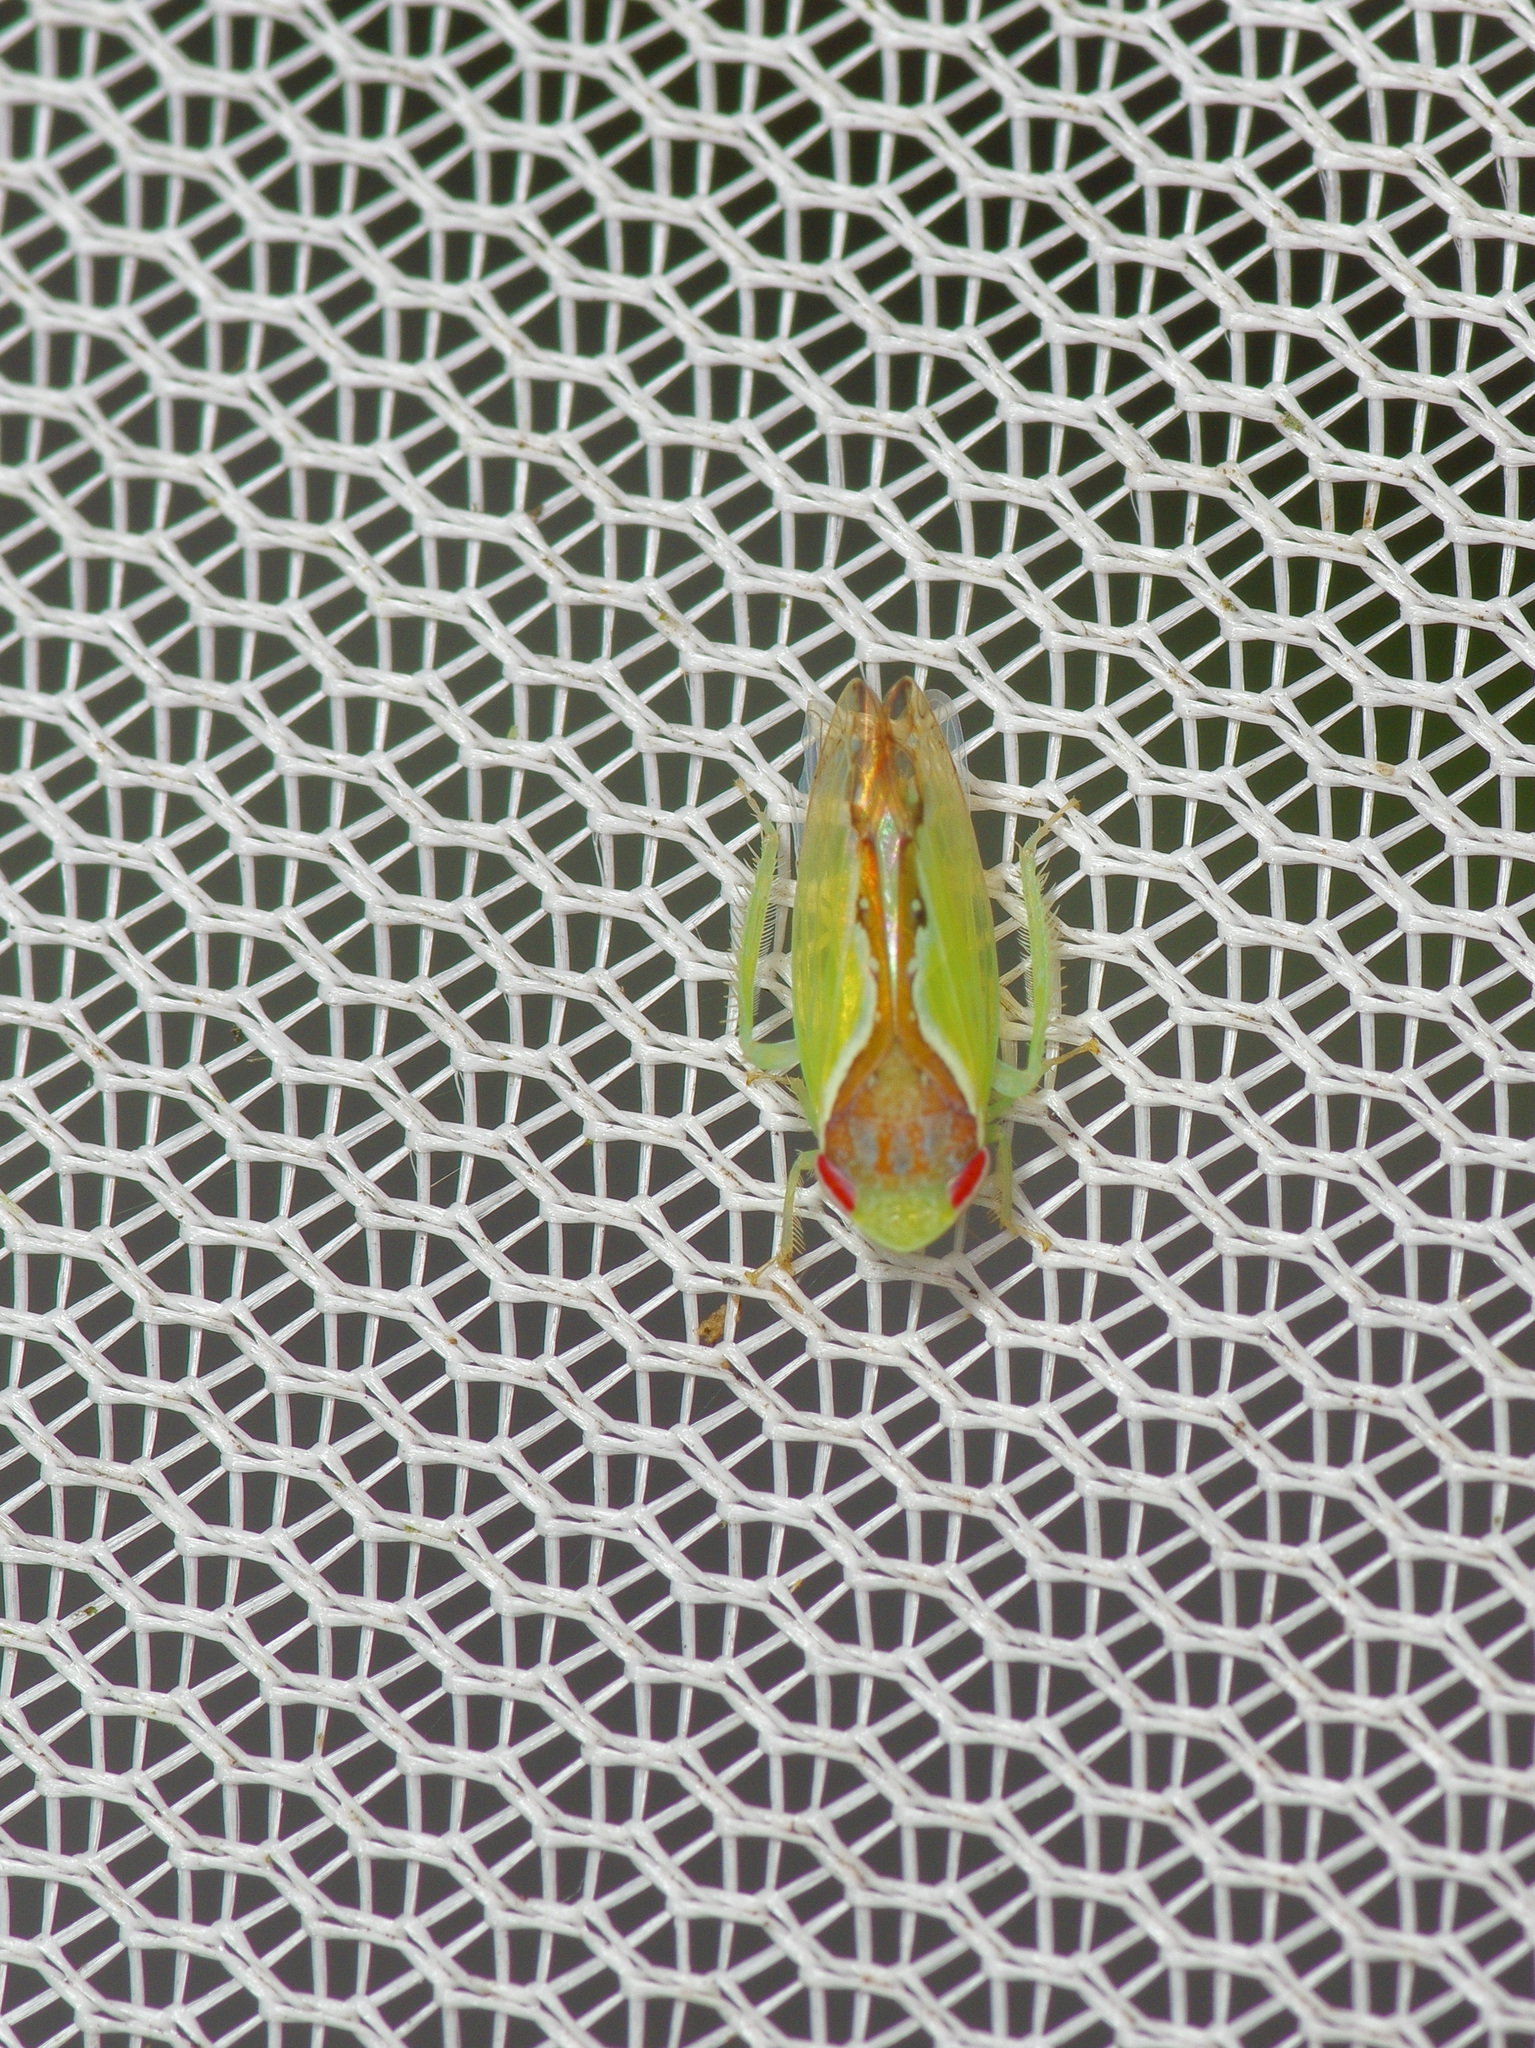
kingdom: Animalia
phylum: Arthropoda
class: Insecta
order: Hemiptera
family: Cicadellidae
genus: Omansobara ing
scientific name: Omansobara ing Omansobara palliolata
